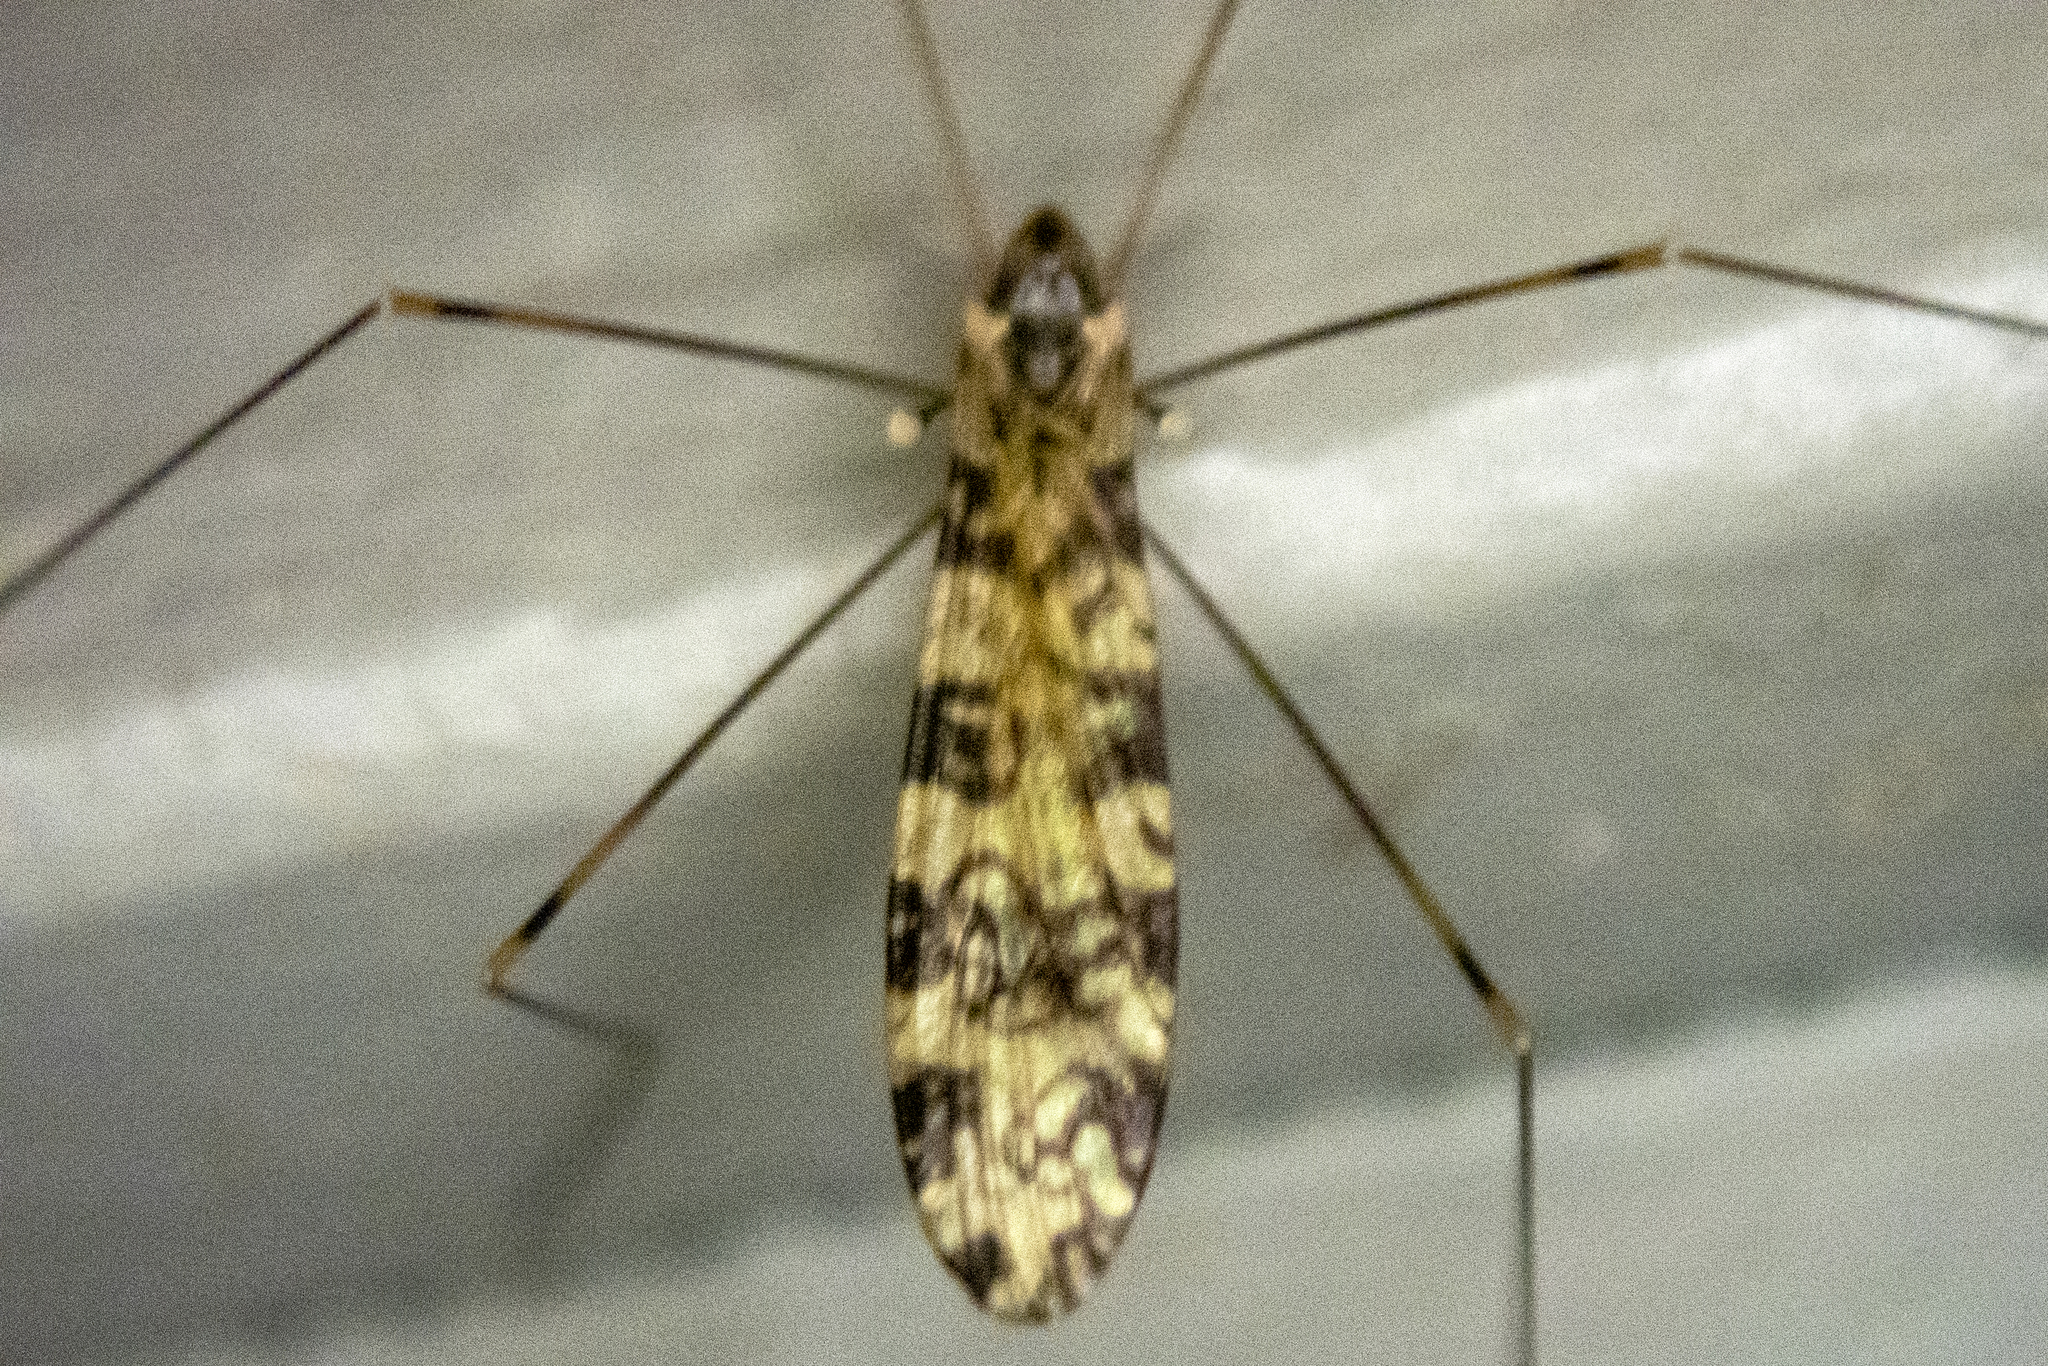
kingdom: Animalia
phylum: Arthropoda
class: Insecta
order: Diptera
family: Limoniidae
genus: Limonia
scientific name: Limonia annulata
